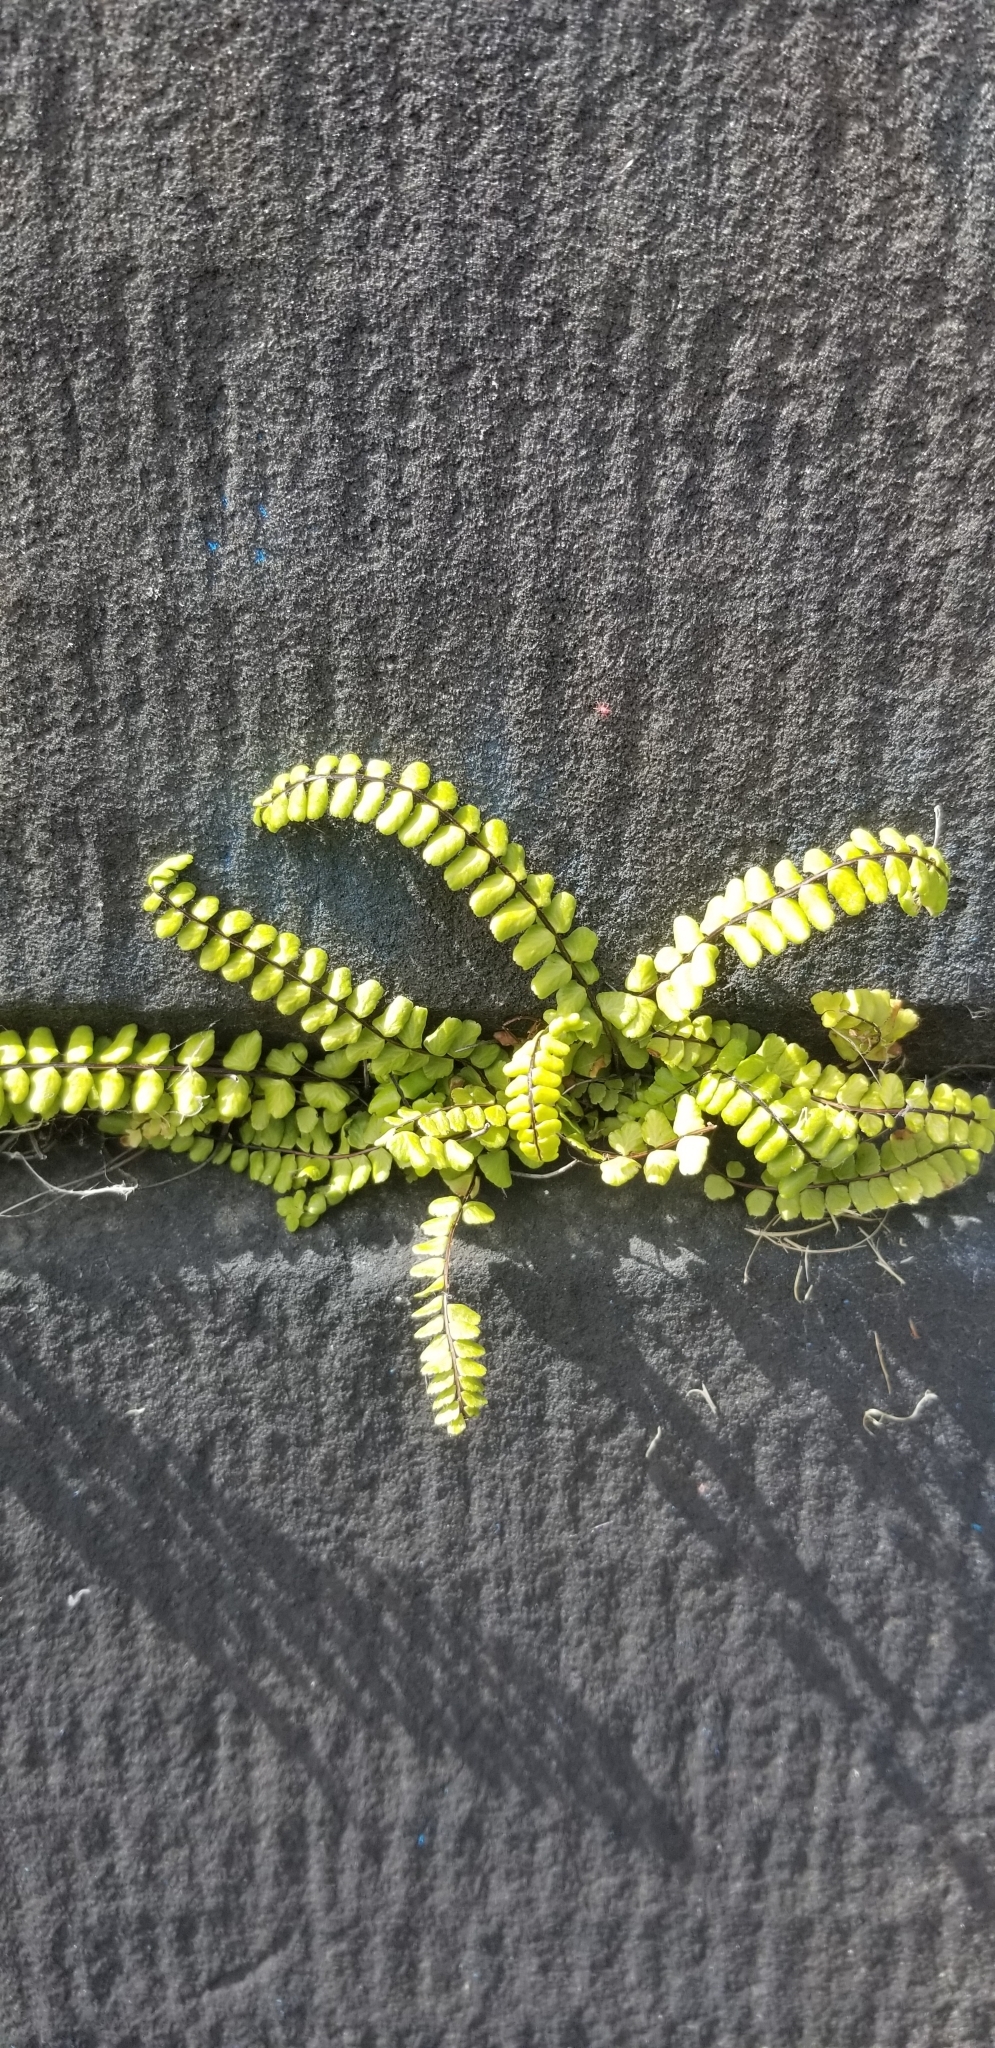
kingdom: Plantae
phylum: Tracheophyta
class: Polypodiopsida
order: Polypodiales
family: Aspleniaceae
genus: Asplenium
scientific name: Asplenium trichomanes
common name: Maidenhair spleenwort
